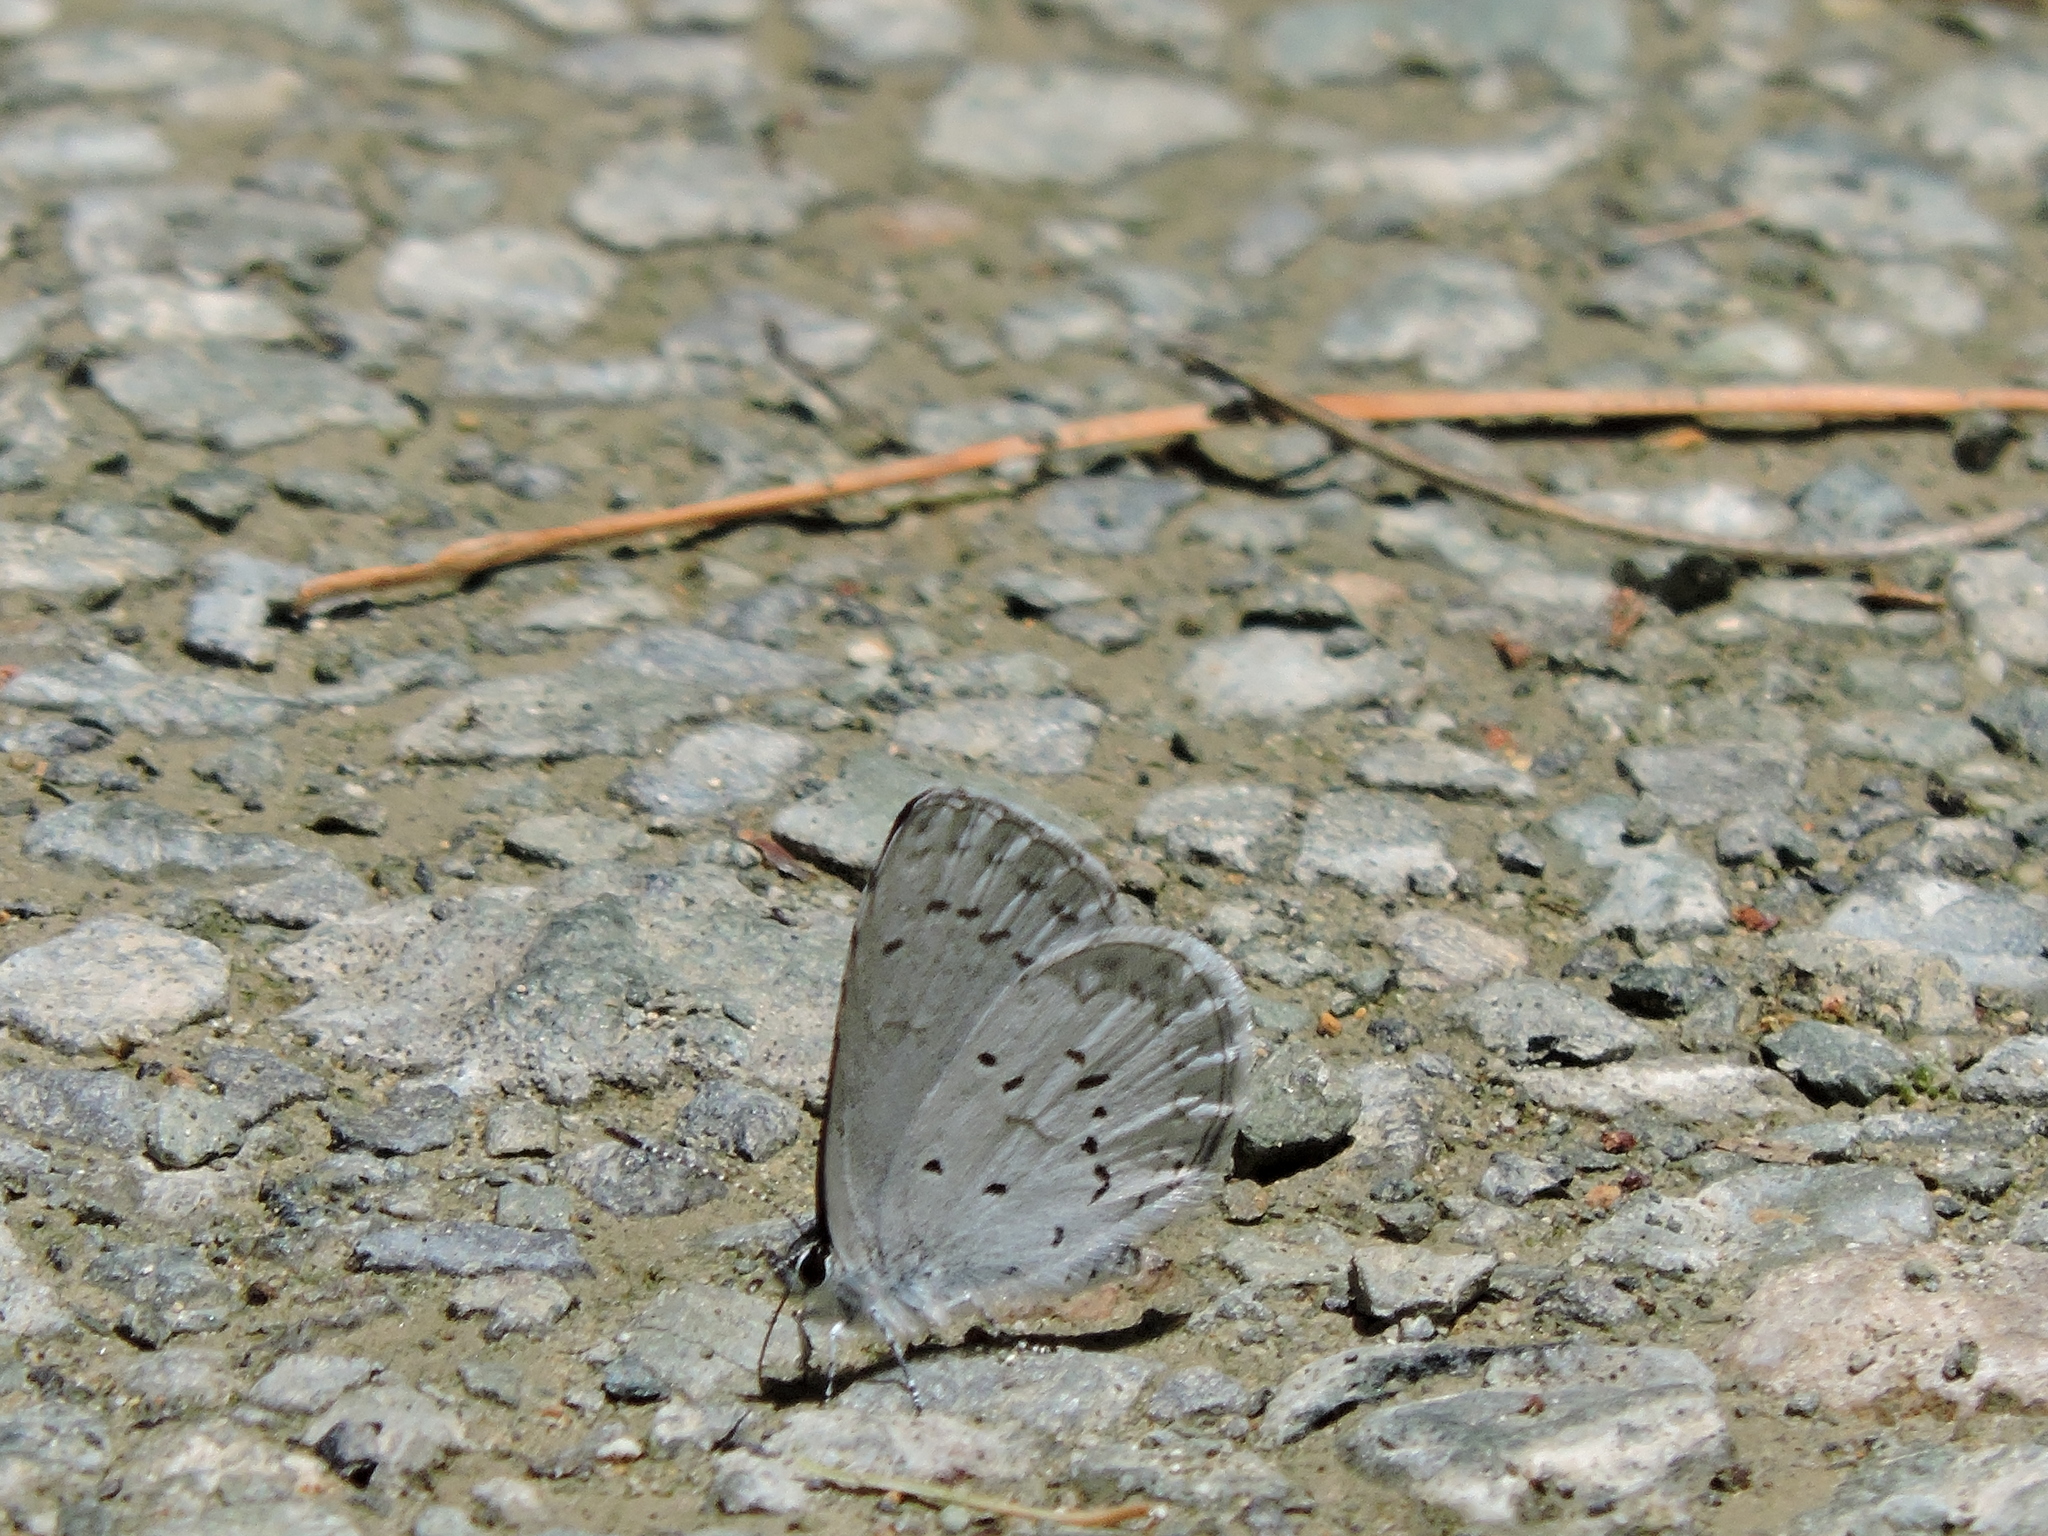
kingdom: Animalia
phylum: Arthropoda
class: Insecta
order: Lepidoptera
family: Lycaenidae
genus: Celastrina
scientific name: Celastrina ladon
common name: Spring azure
